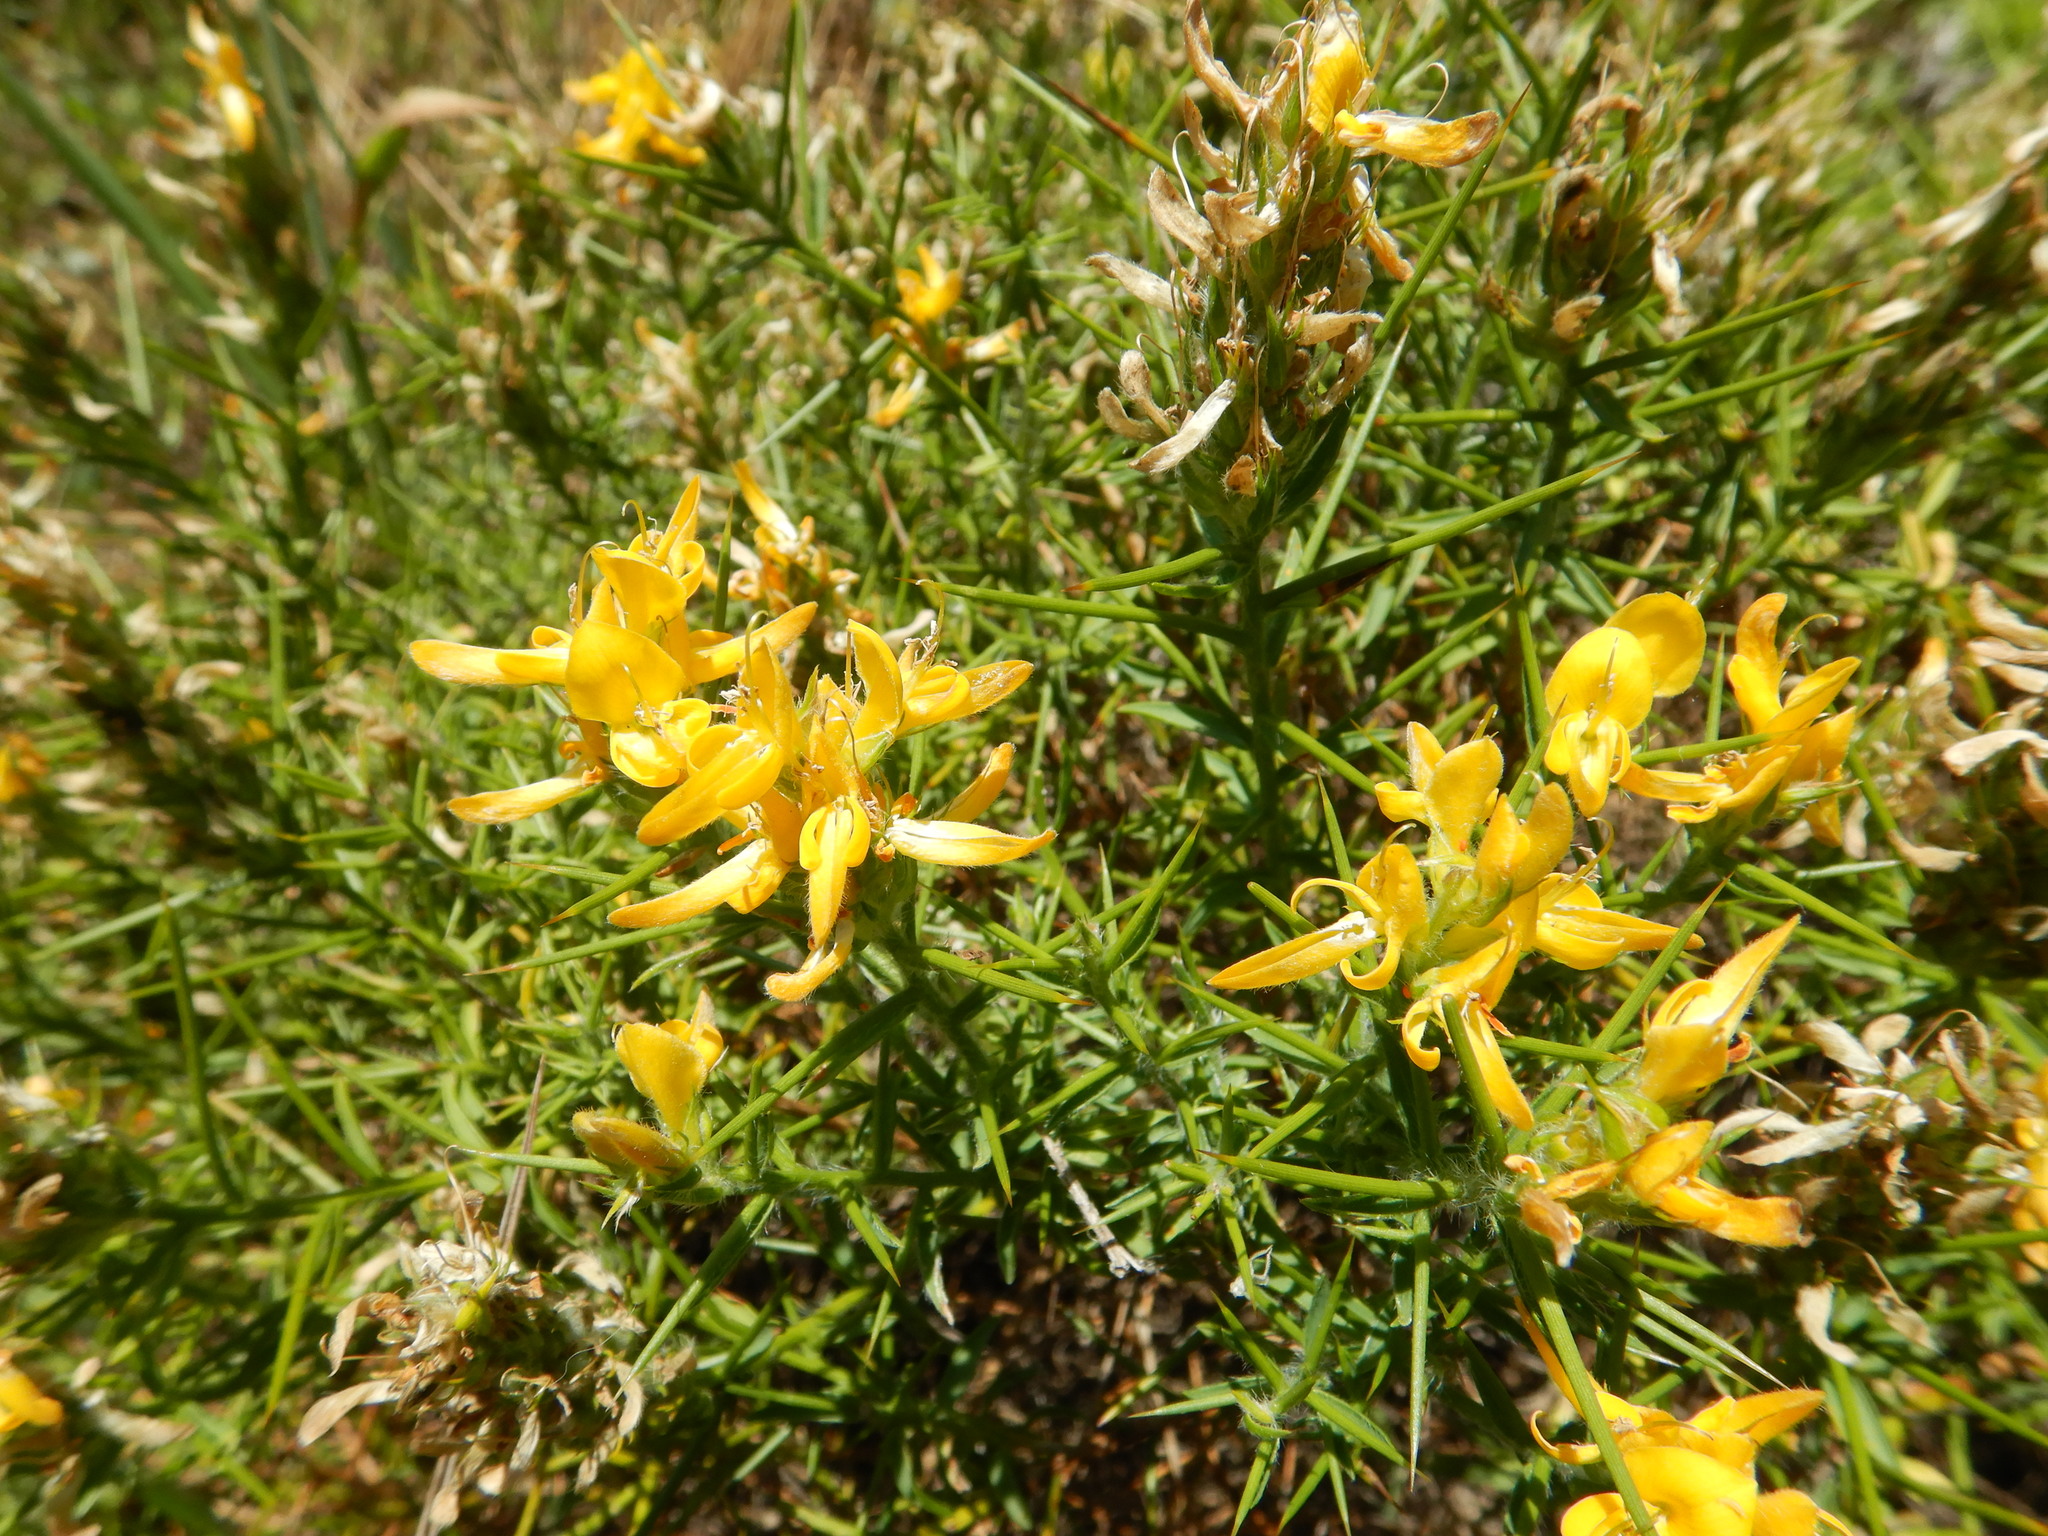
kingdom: Plantae
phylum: Tracheophyta
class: Magnoliopsida
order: Fabales
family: Fabaceae
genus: Genista
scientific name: Genista hirsuta
